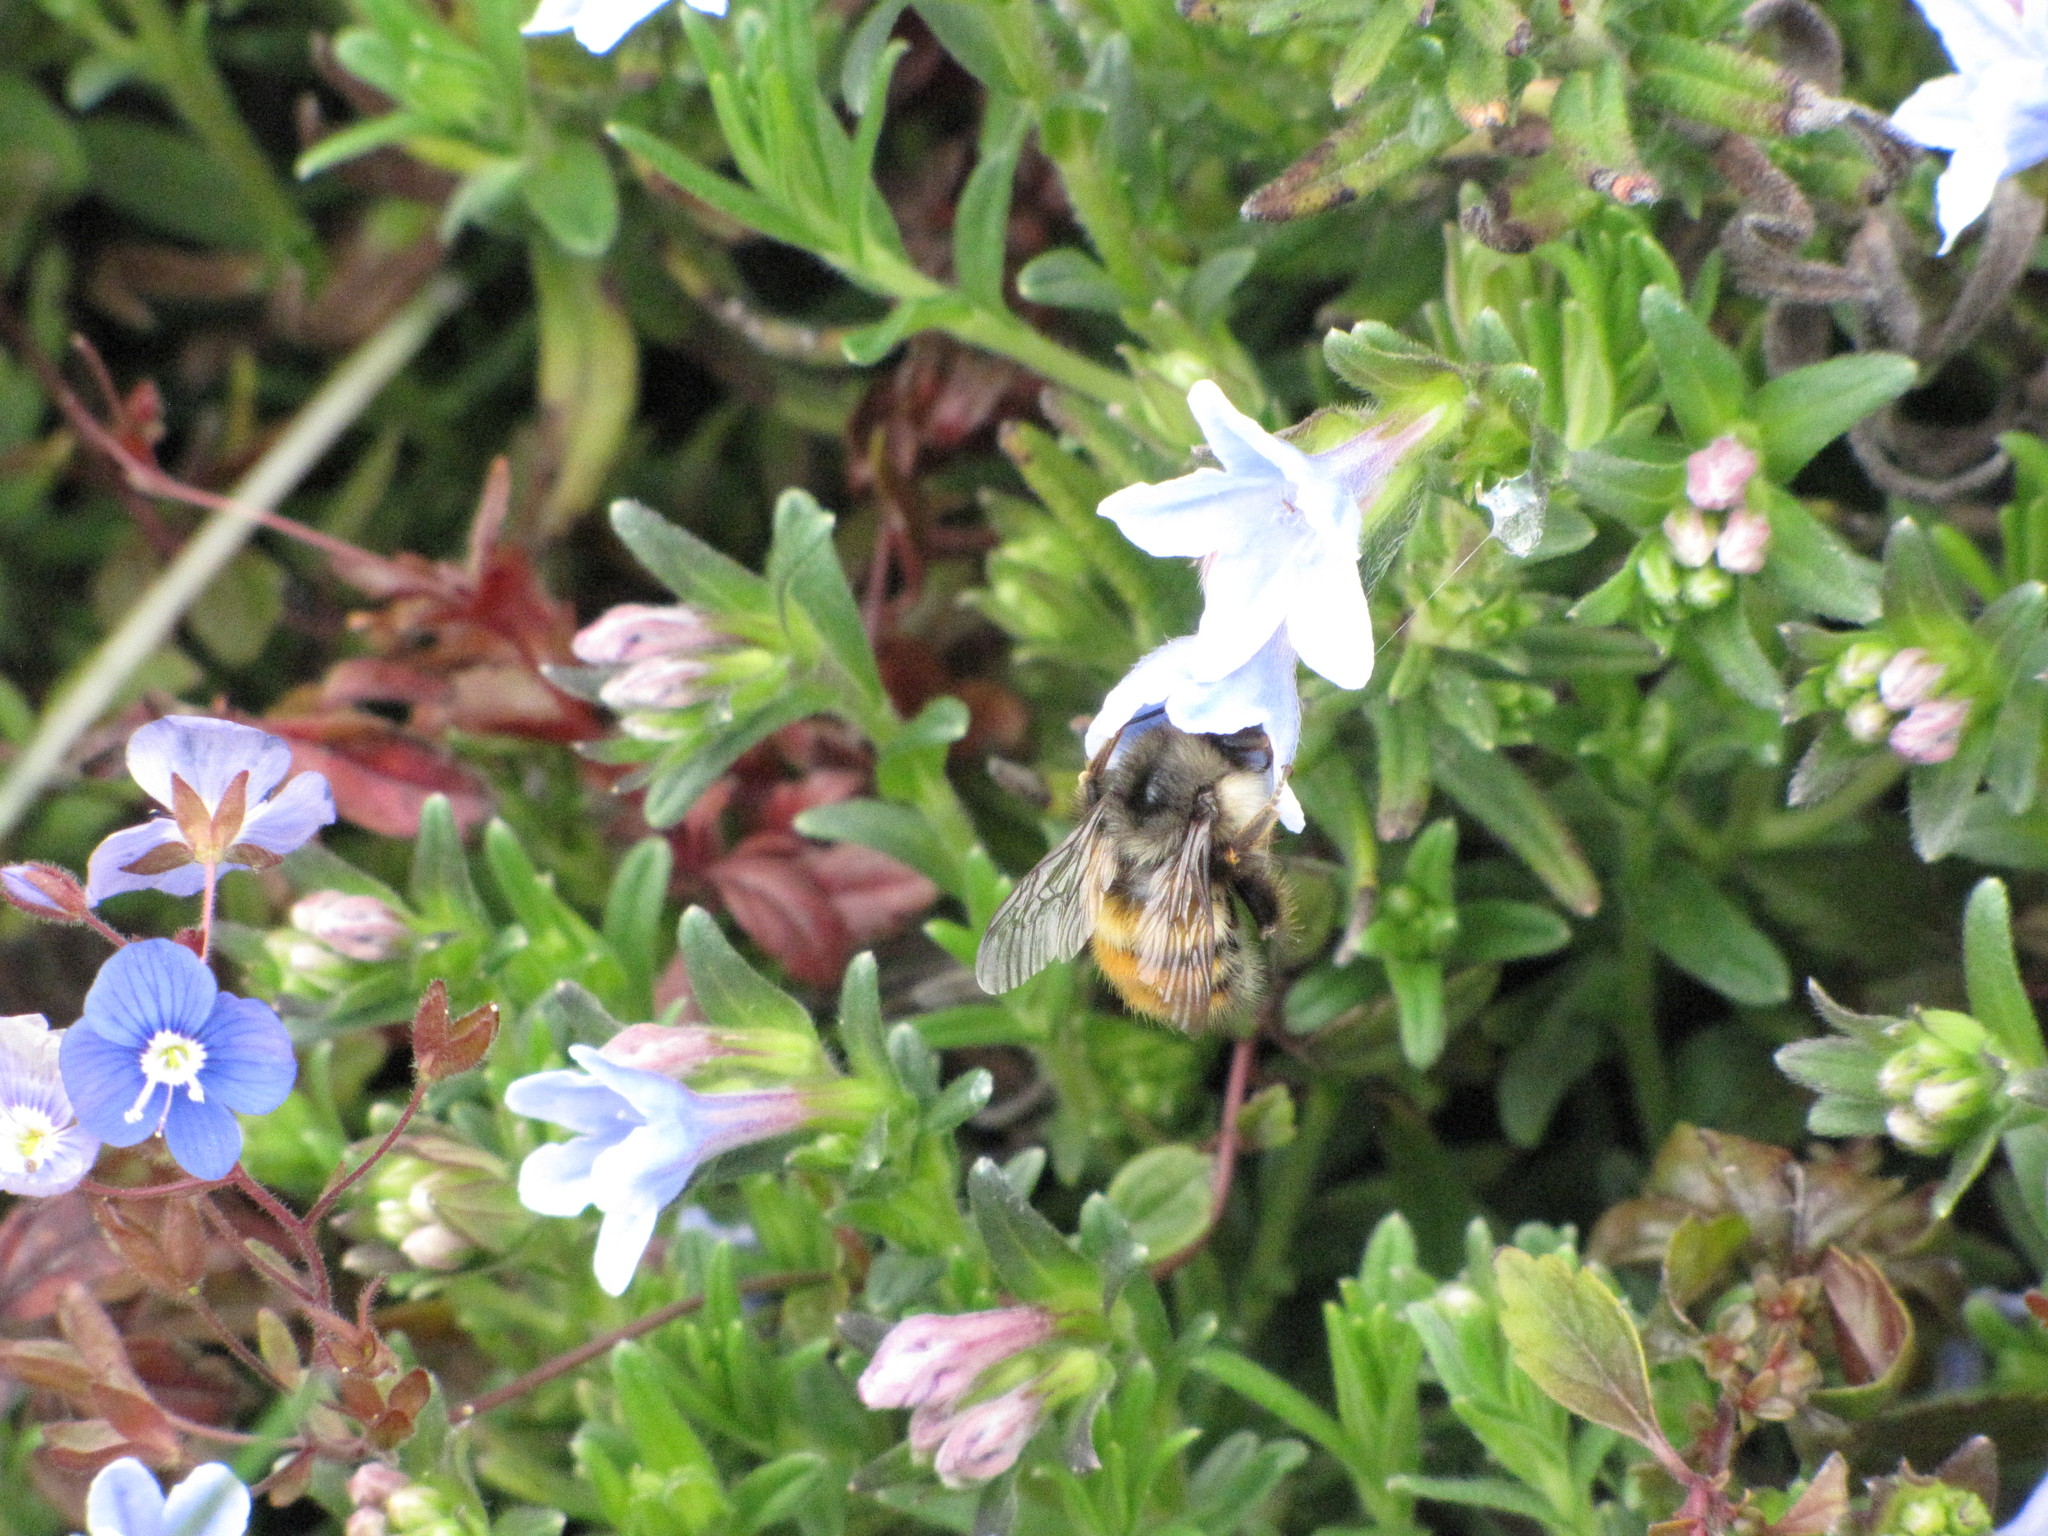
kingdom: Animalia
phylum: Arthropoda
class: Insecta
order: Hymenoptera
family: Apidae
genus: Bombus
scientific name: Bombus flavifrons
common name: Yellow head bumble bee
